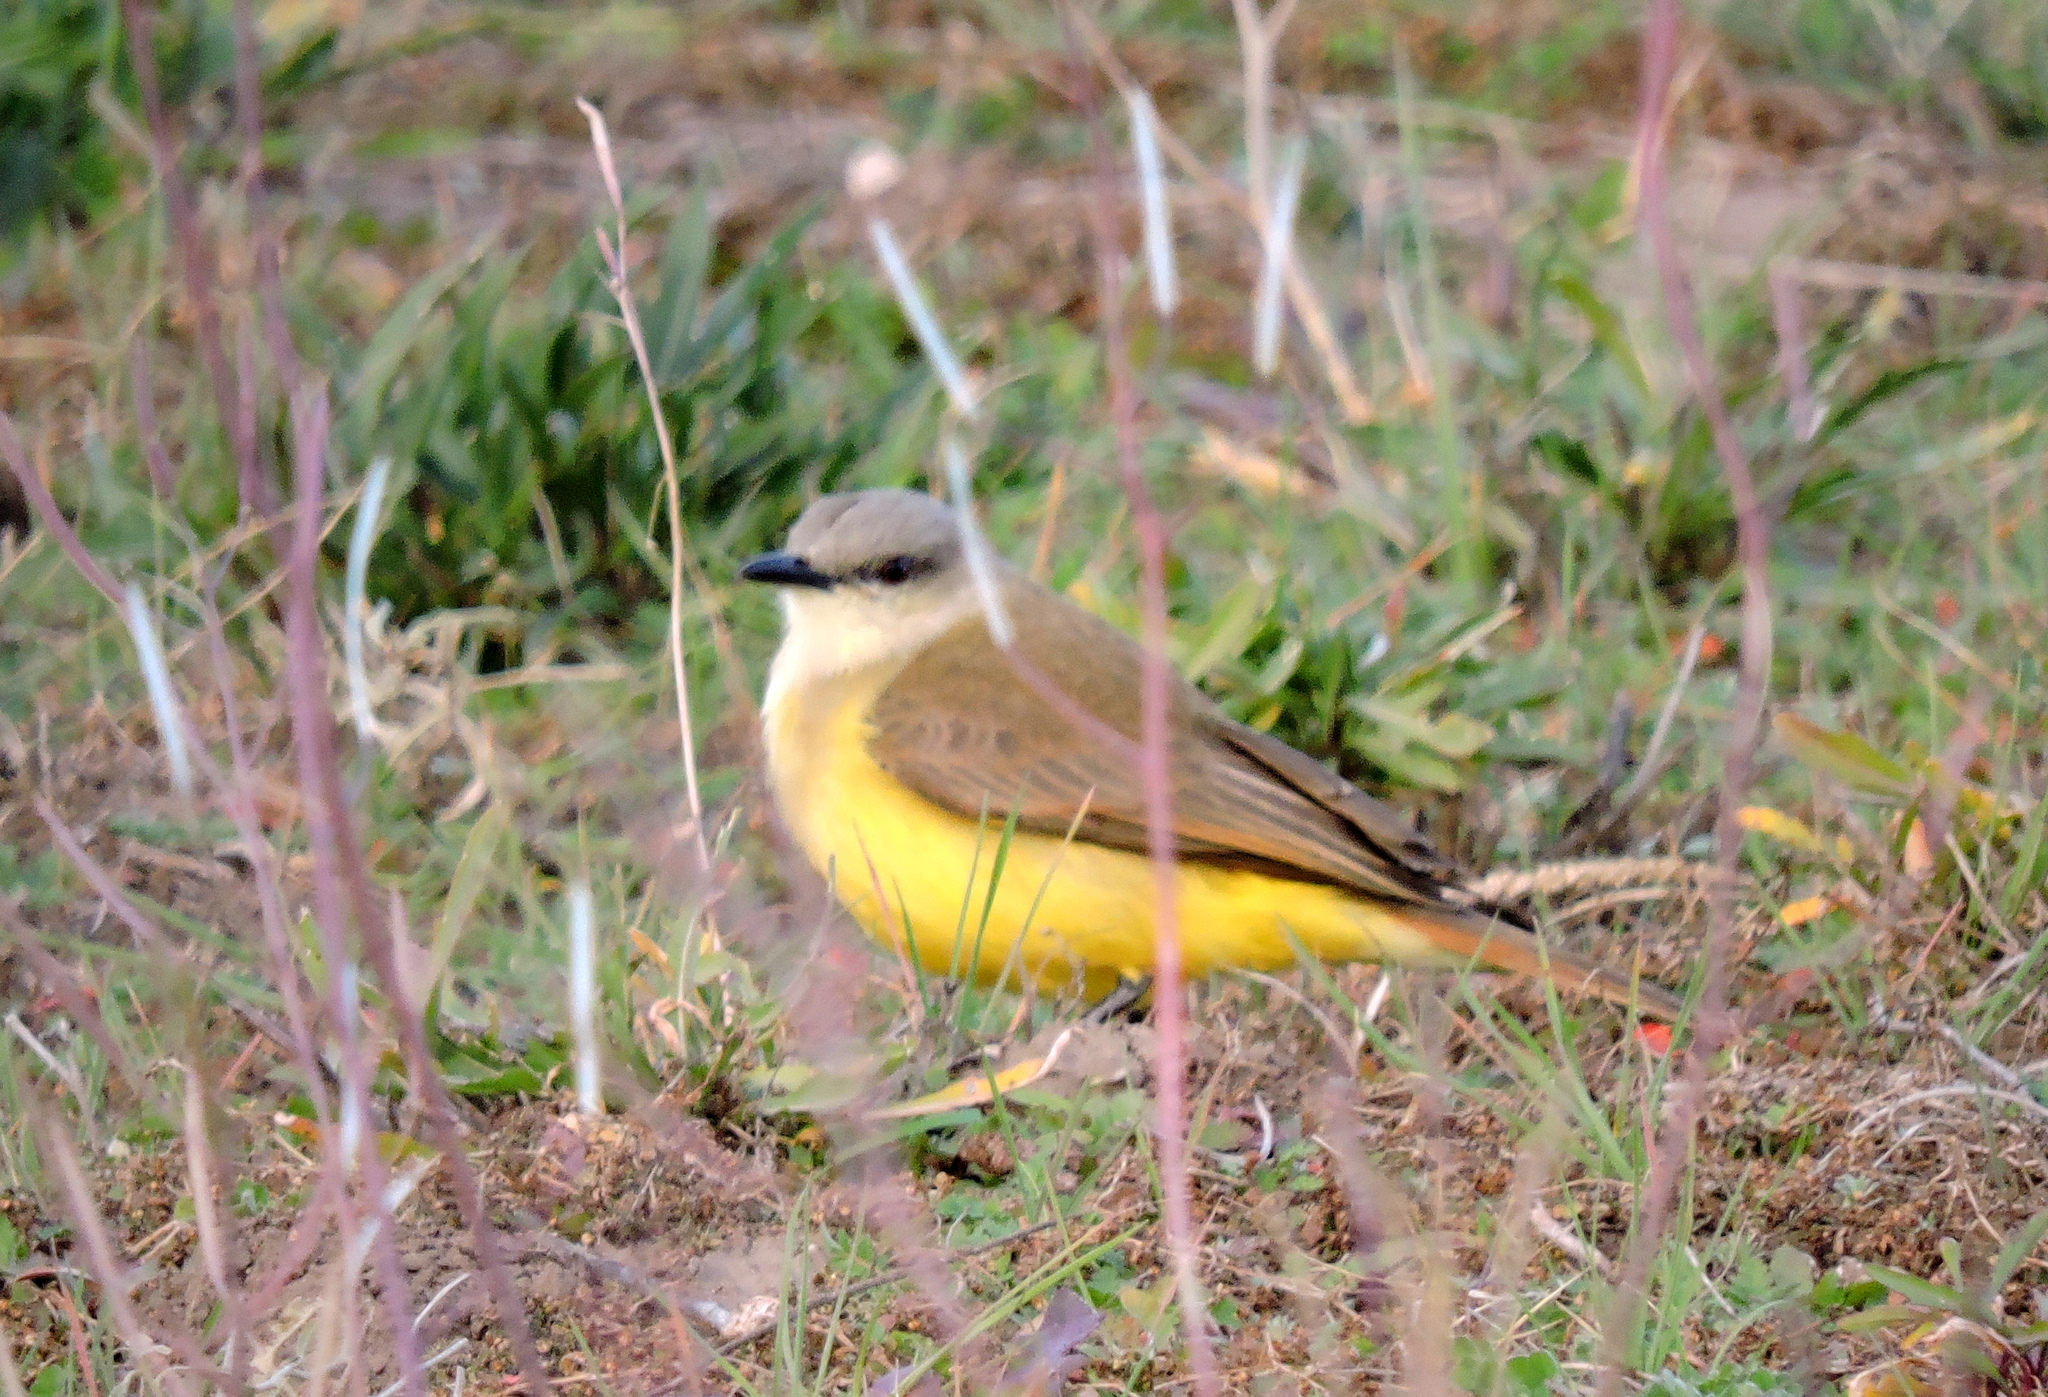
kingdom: Animalia
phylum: Chordata
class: Aves
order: Passeriformes
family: Tyrannidae
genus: Machetornis
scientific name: Machetornis rixosa
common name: Cattle tyrant
